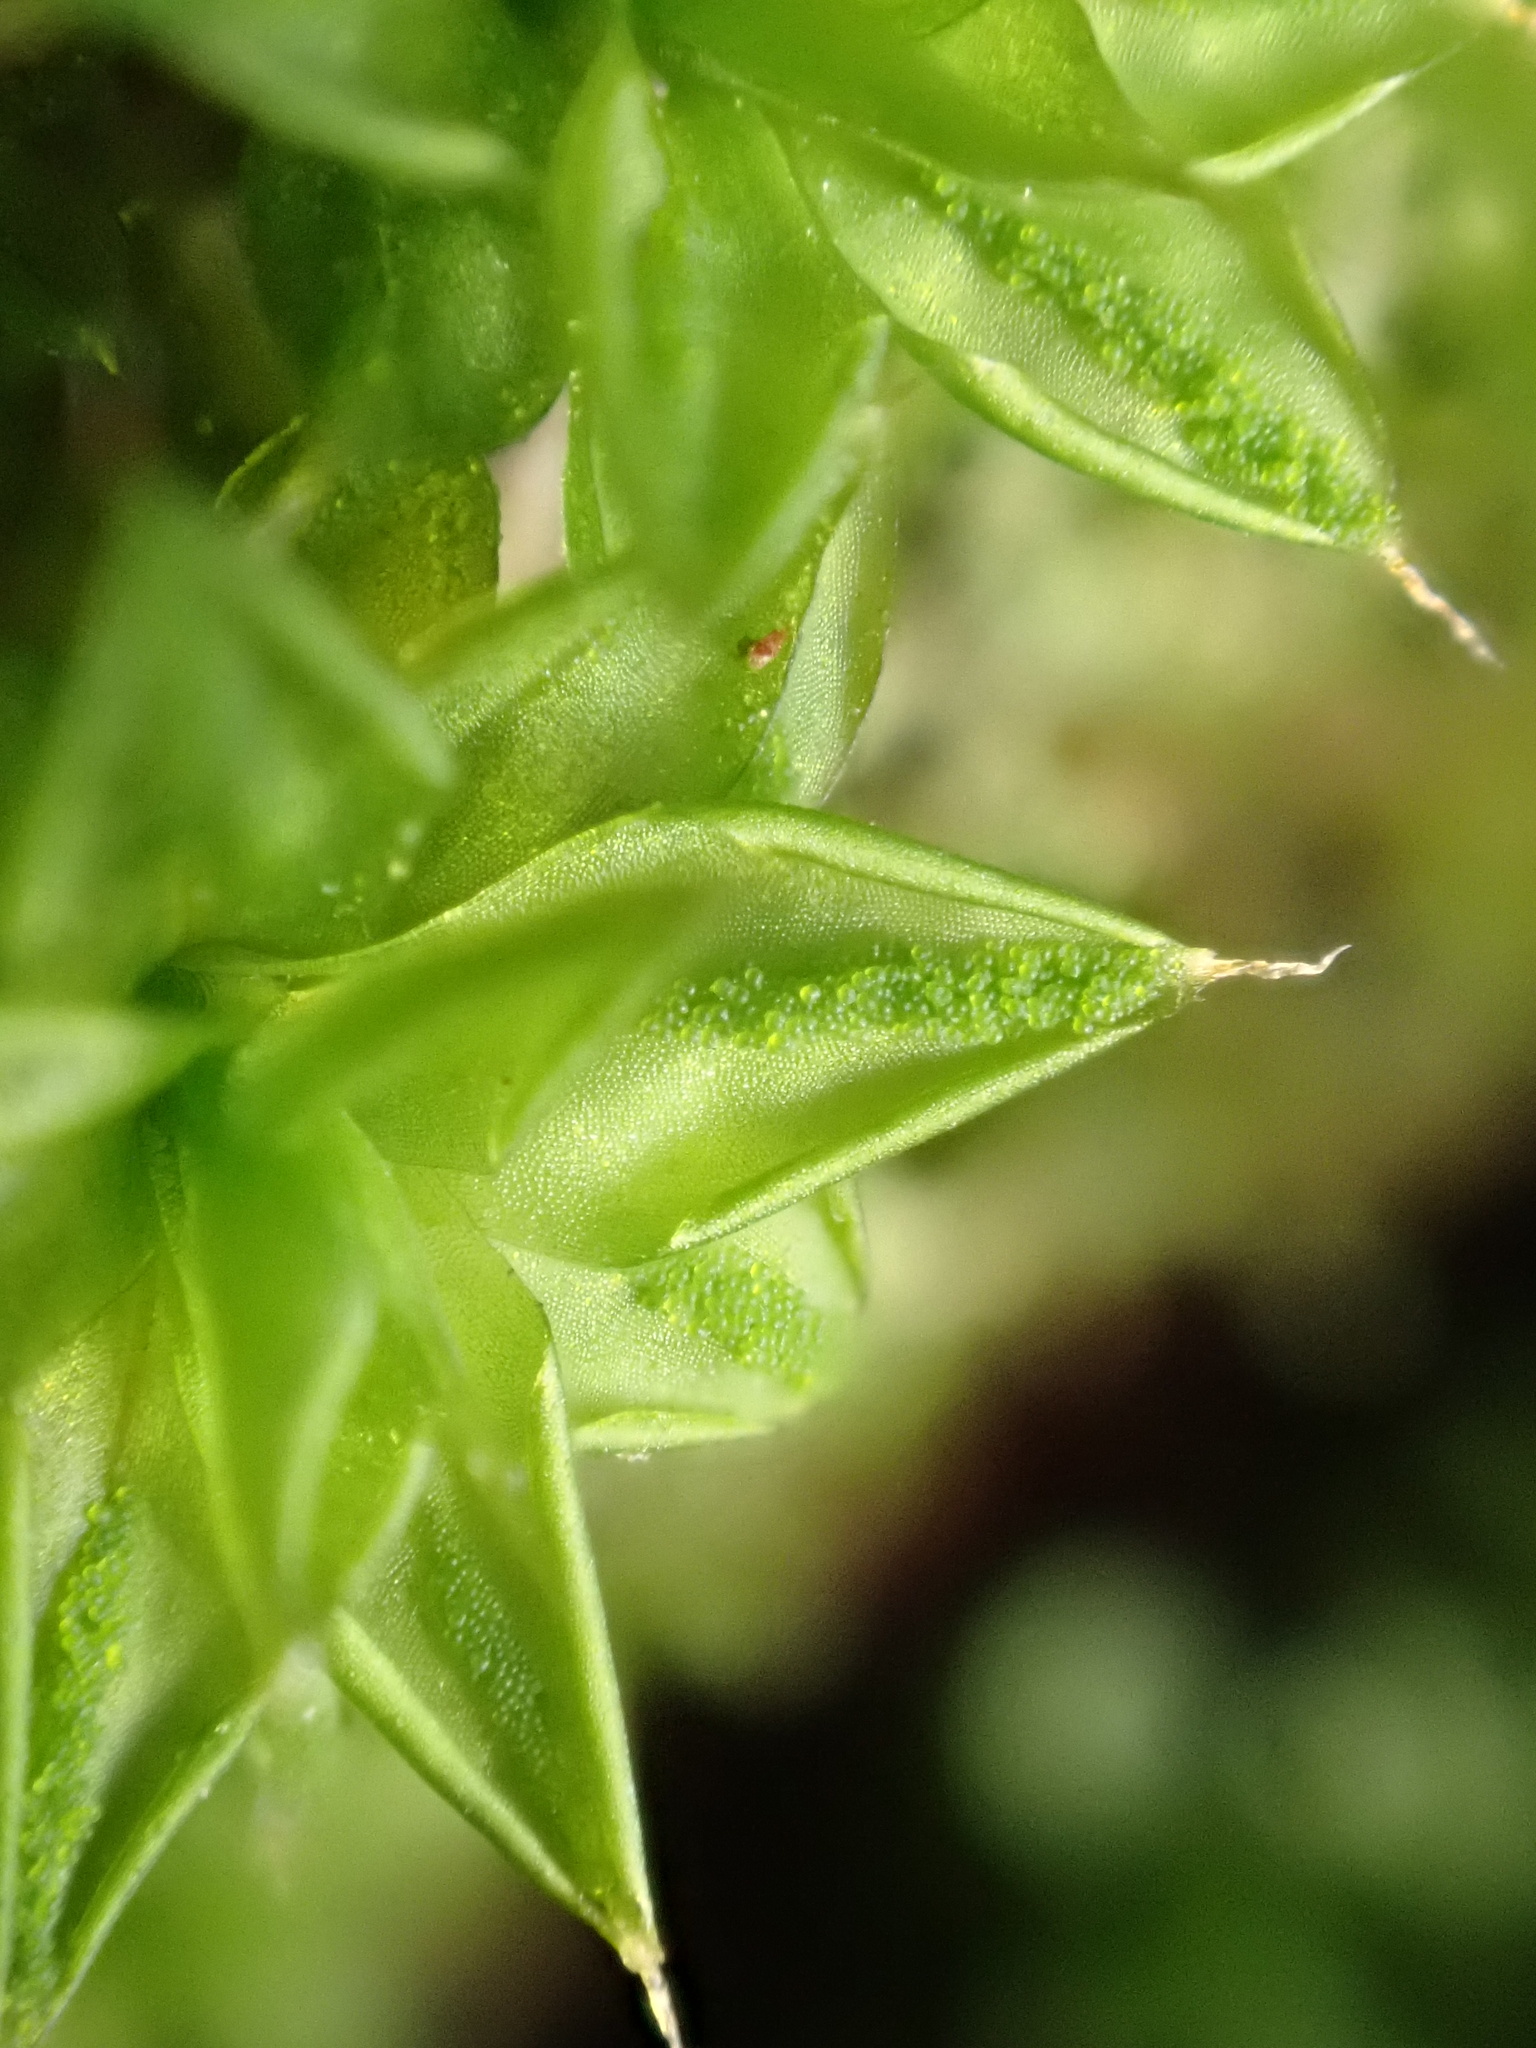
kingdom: Plantae
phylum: Bryophyta
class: Bryopsida
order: Pottiales
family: Pottiaceae
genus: Syntrichia
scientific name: Syntrichia papillosa
